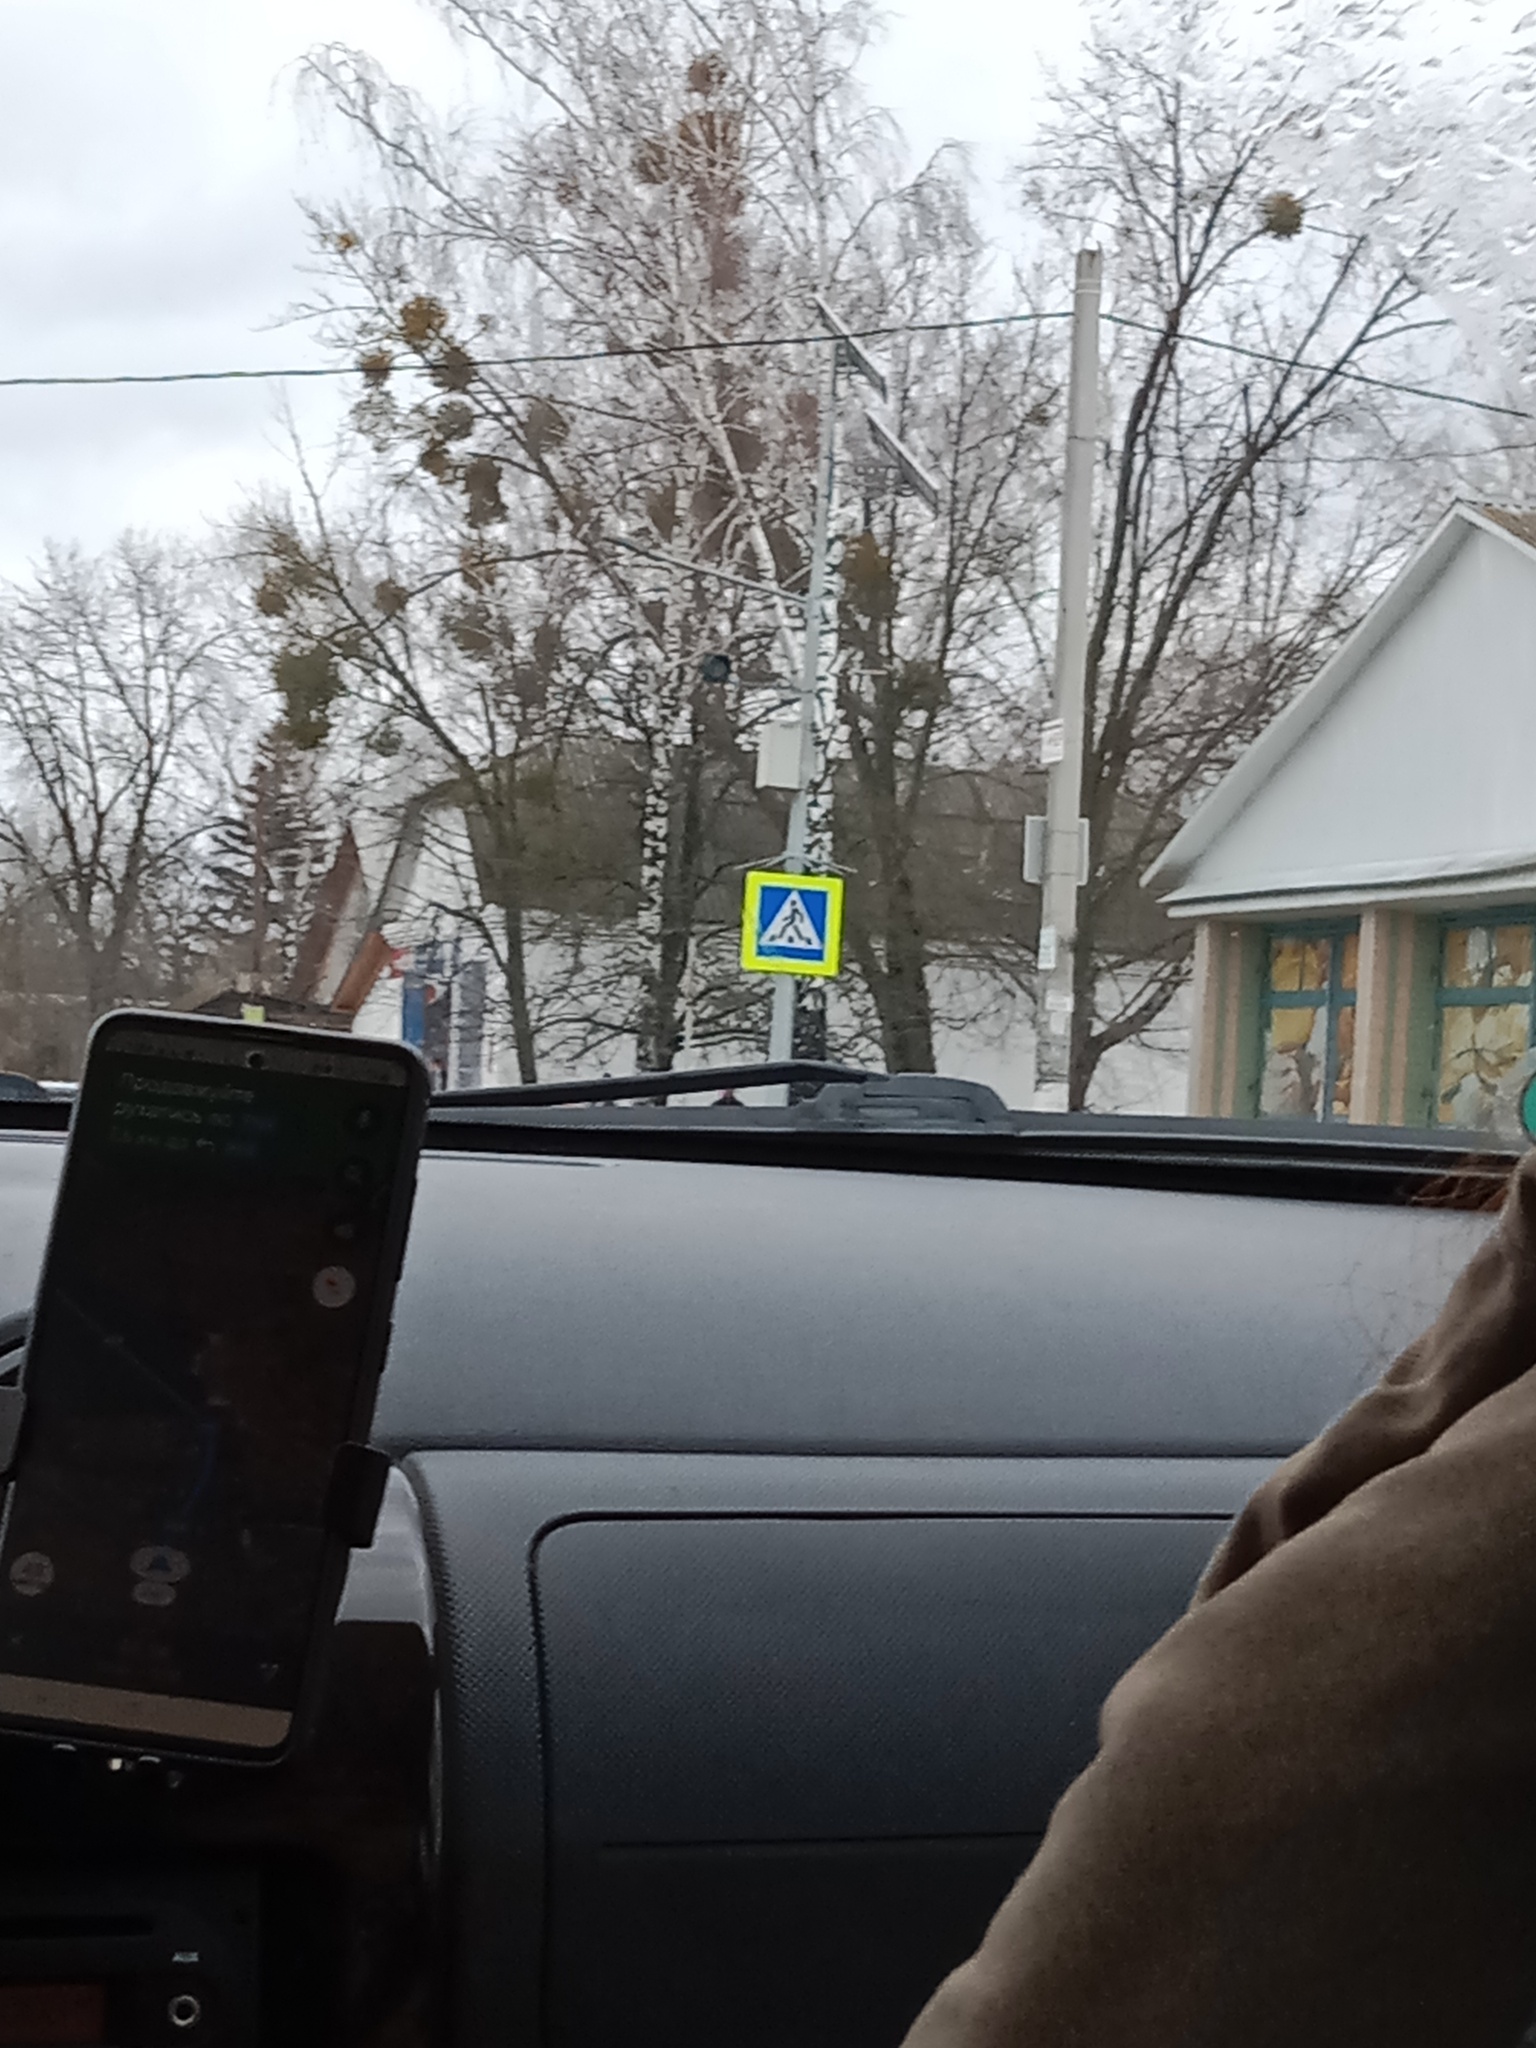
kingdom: Plantae
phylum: Tracheophyta
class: Magnoliopsida
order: Santalales
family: Viscaceae
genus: Viscum
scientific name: Viscum album
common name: Mistletoe
